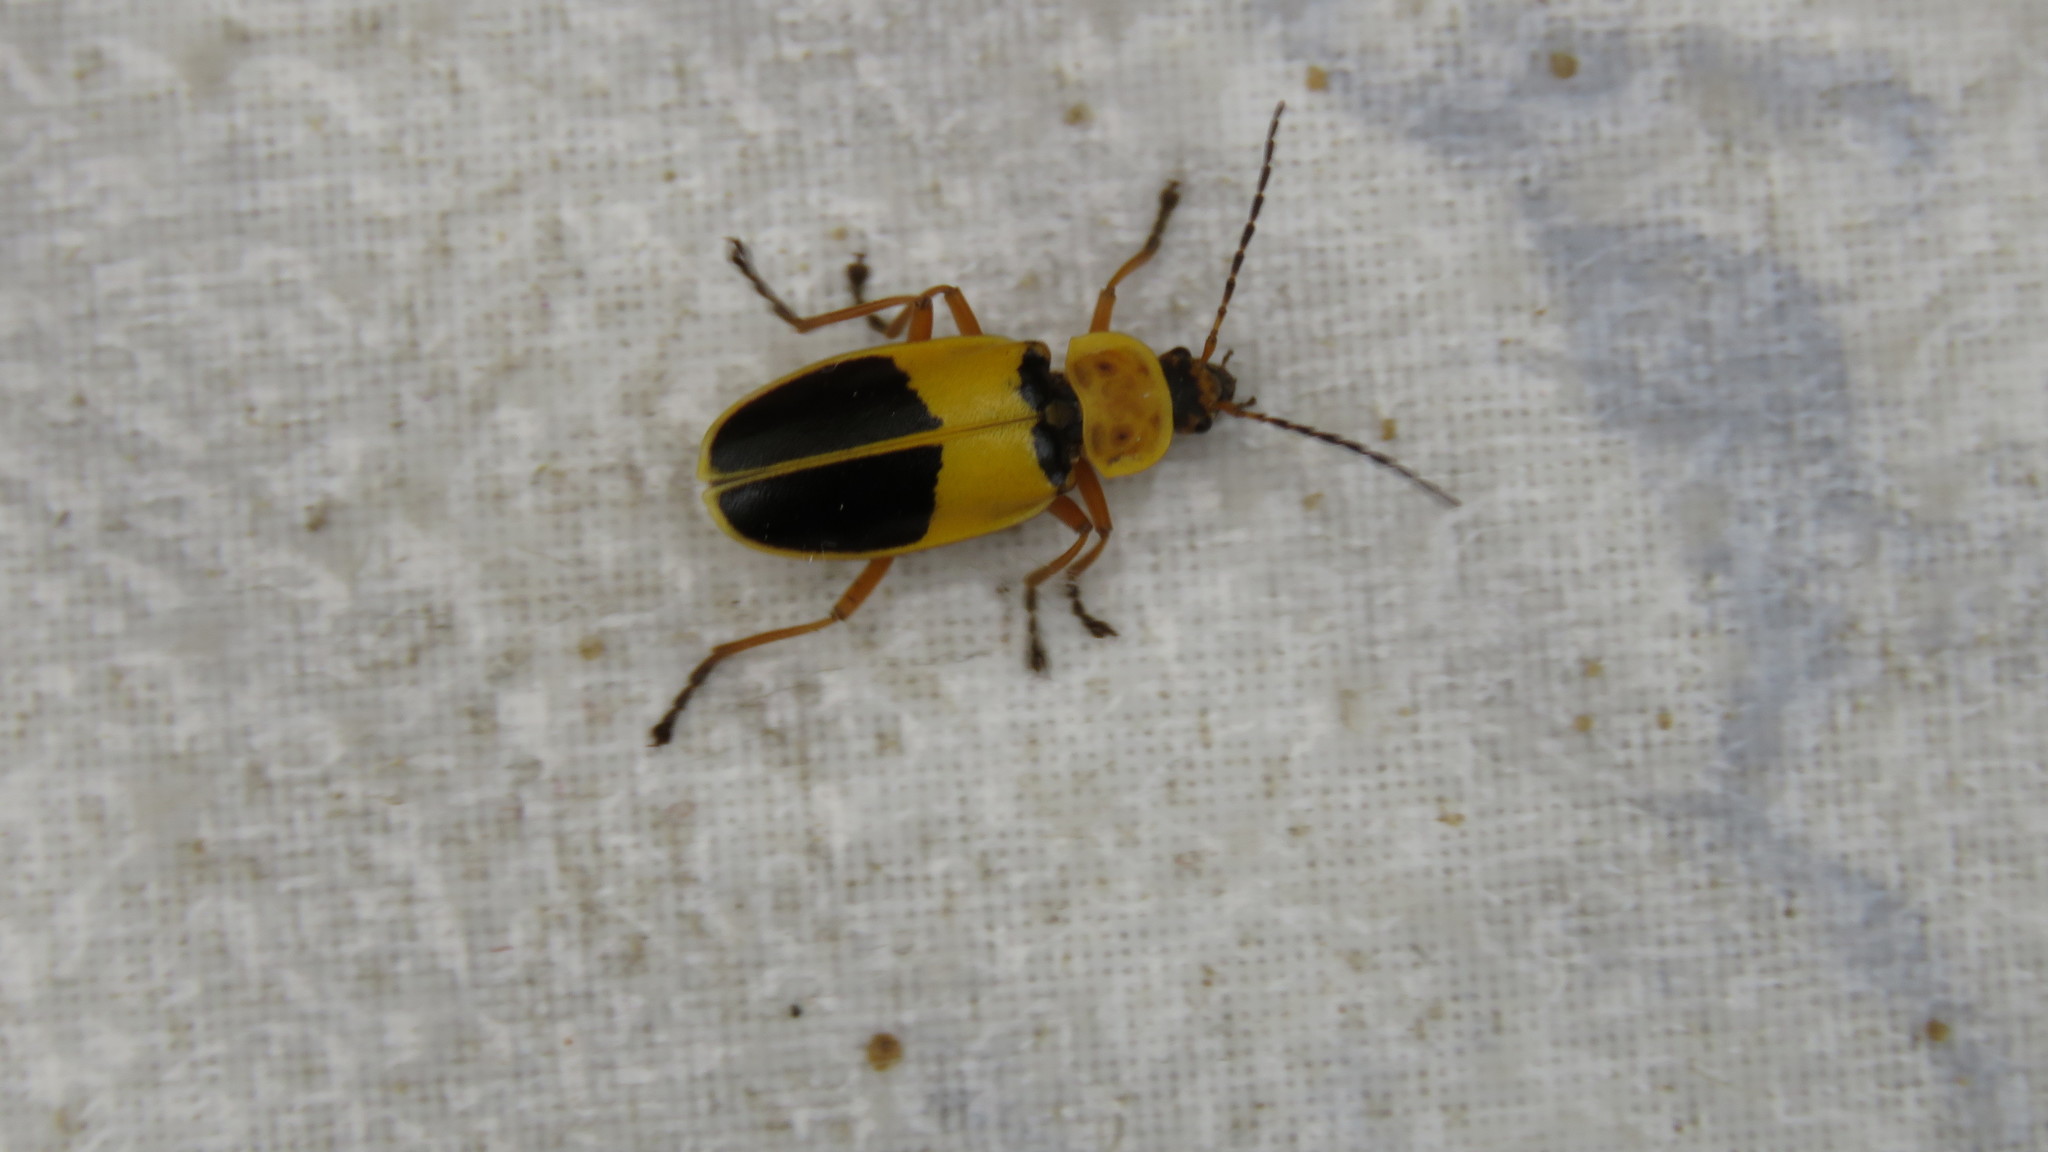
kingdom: Animalia
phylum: Arthropoda
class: Insecta
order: Coleoptera
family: Cantharidae
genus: Chauliognathus
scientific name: Chauliognathus
